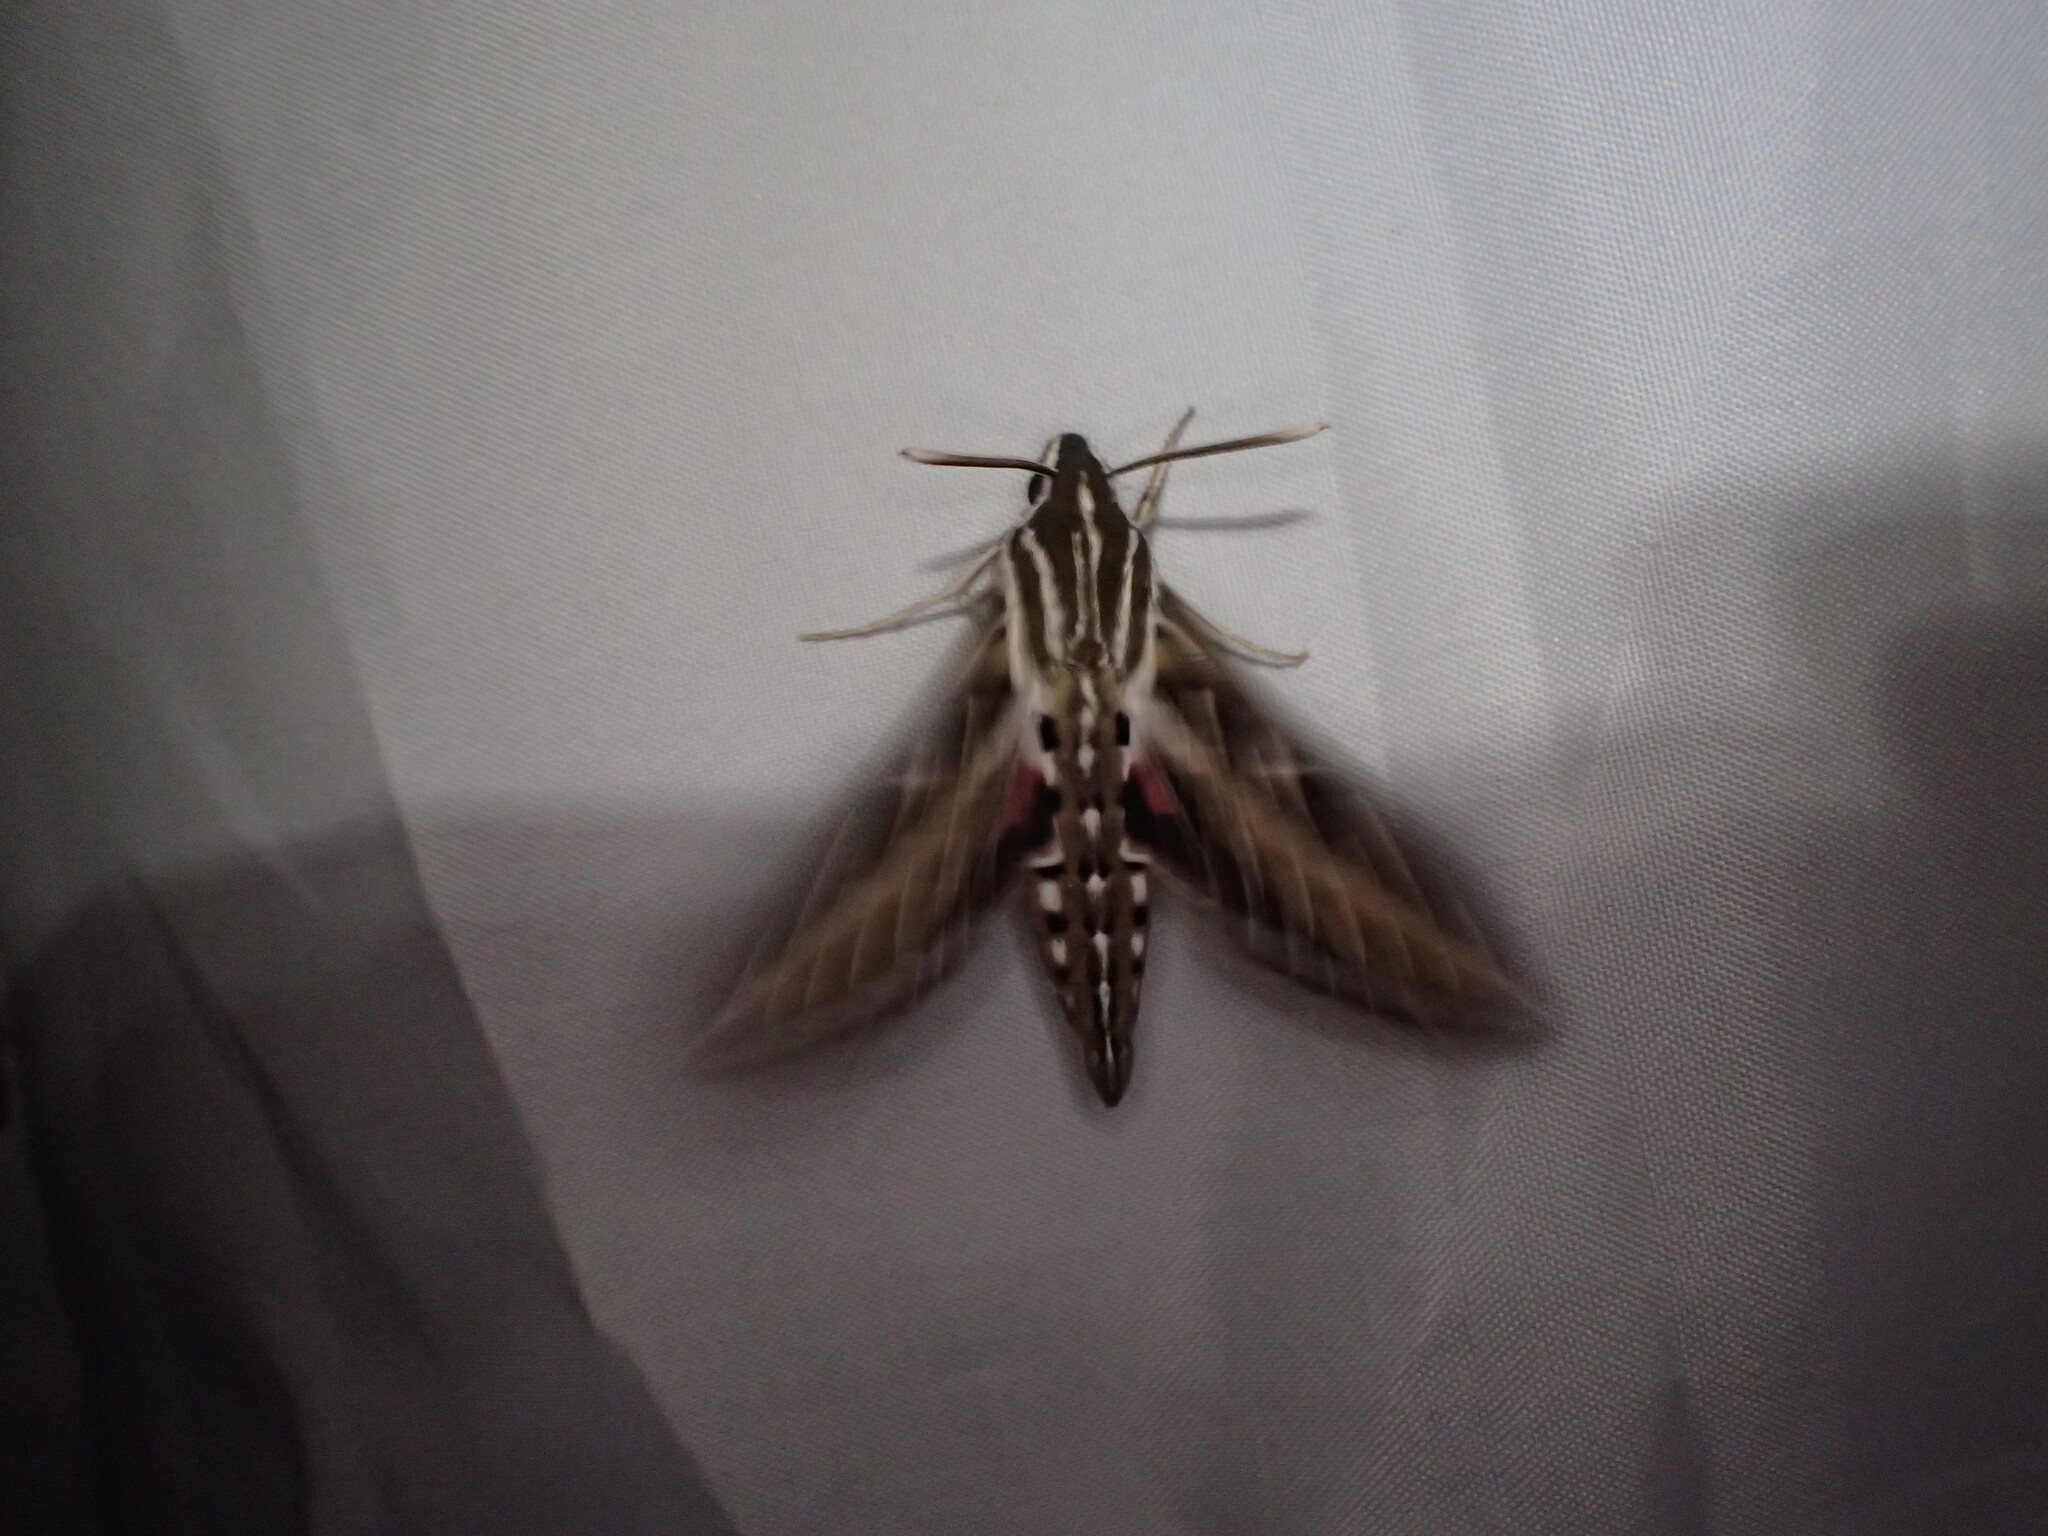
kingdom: Animalia
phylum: Arthropoda
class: Insecta
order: Lepidoptera
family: Sphingidae
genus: Hyles
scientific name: Hyles lineata
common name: White-lined sphinx
